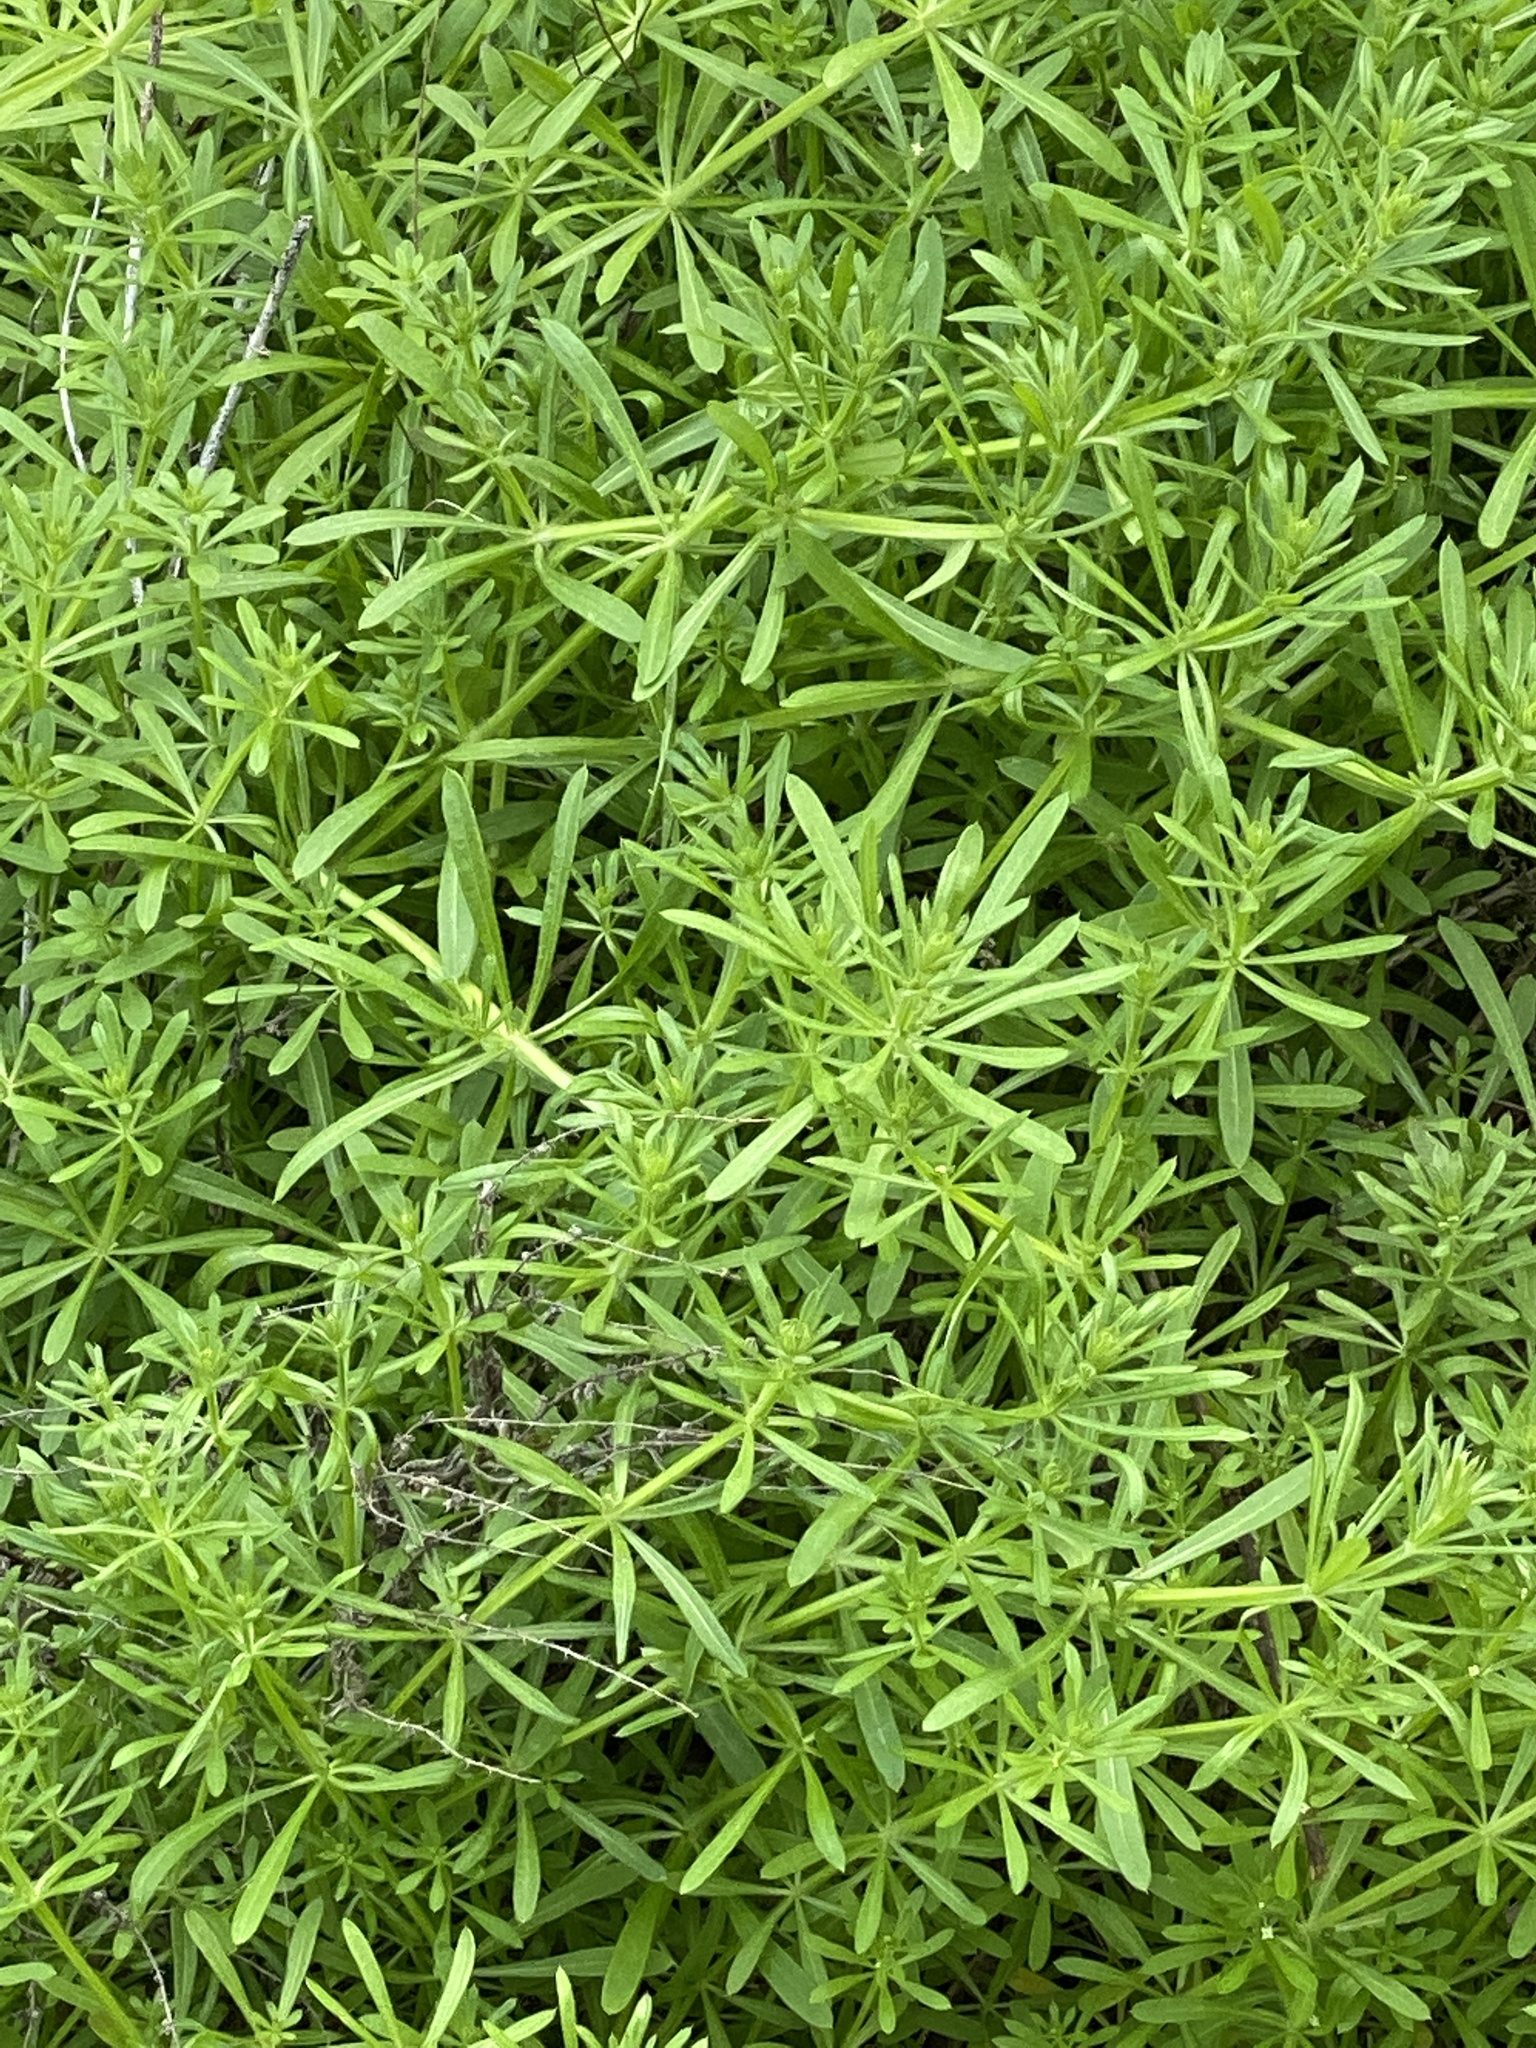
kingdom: Plantae
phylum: Tracheophyta
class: Magnoliopsida
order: Gentianales
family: Rubiaceae
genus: Galium
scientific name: Galium aparine
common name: Cleavers
